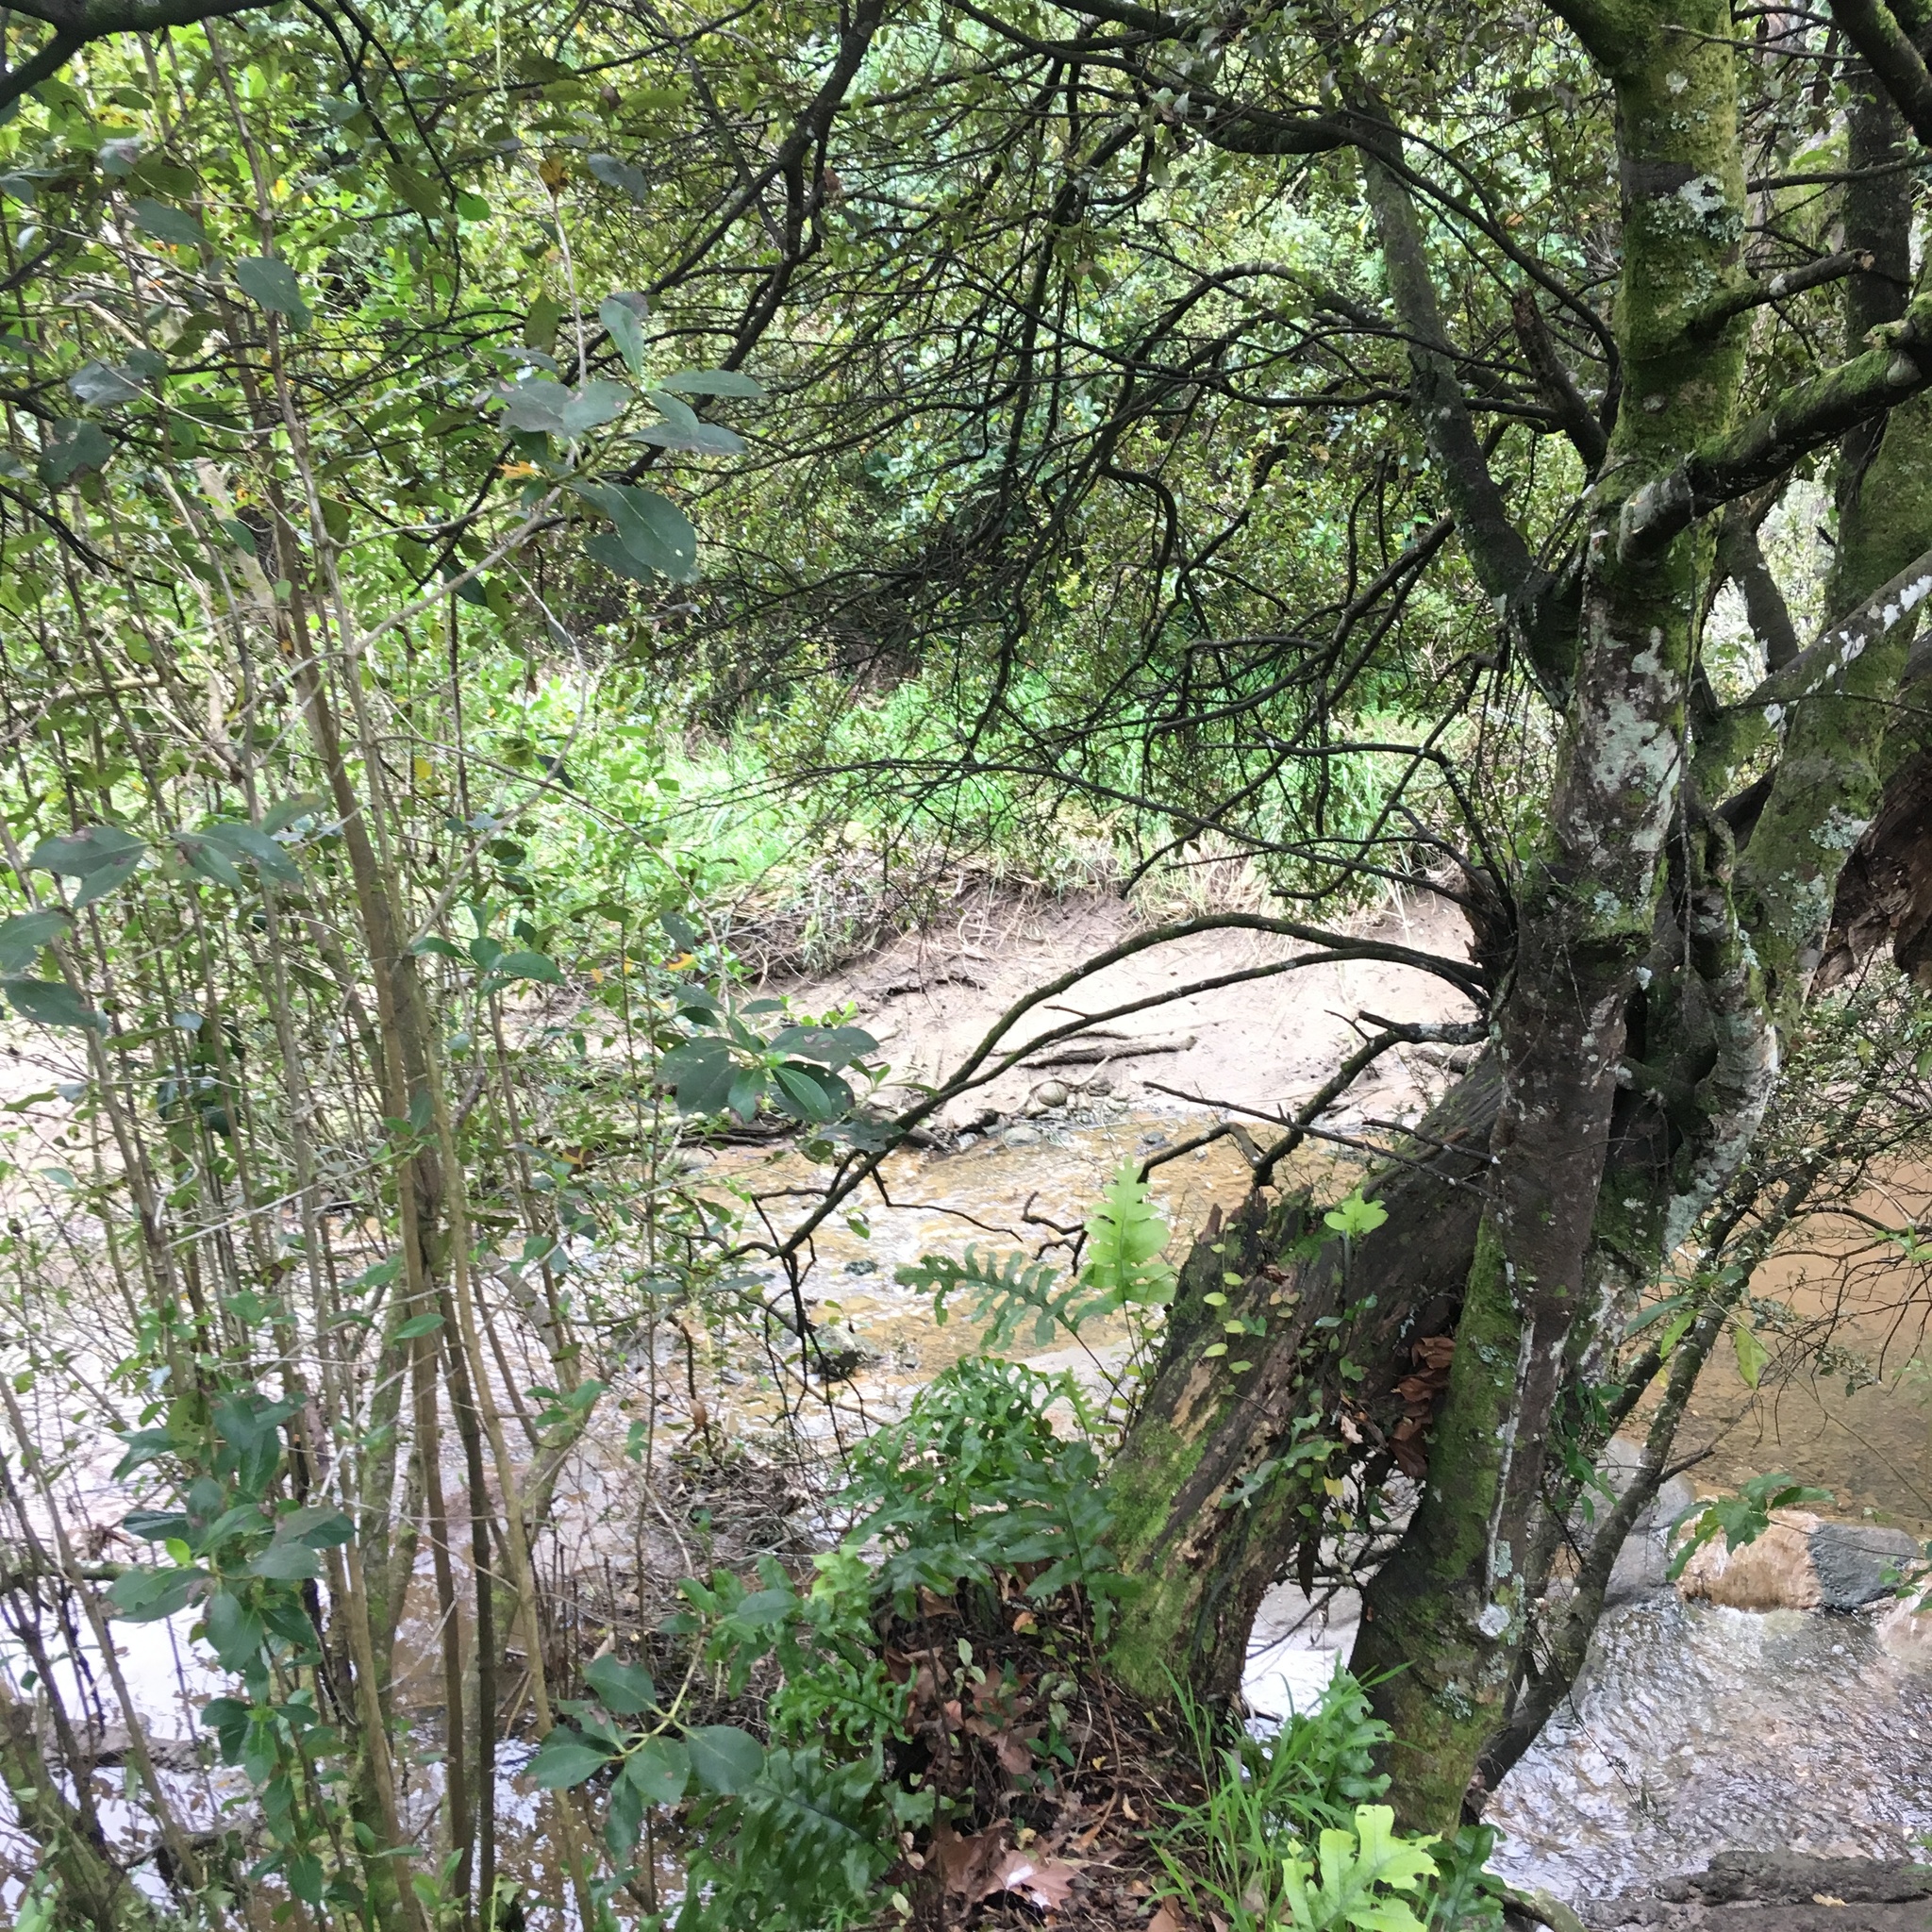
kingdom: Plantae
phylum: Tracheophyta
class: Polypodiopsida
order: Polypodiales
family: Polypodiaceae
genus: Lecanopteris
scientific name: Lecanopteris pustulata
